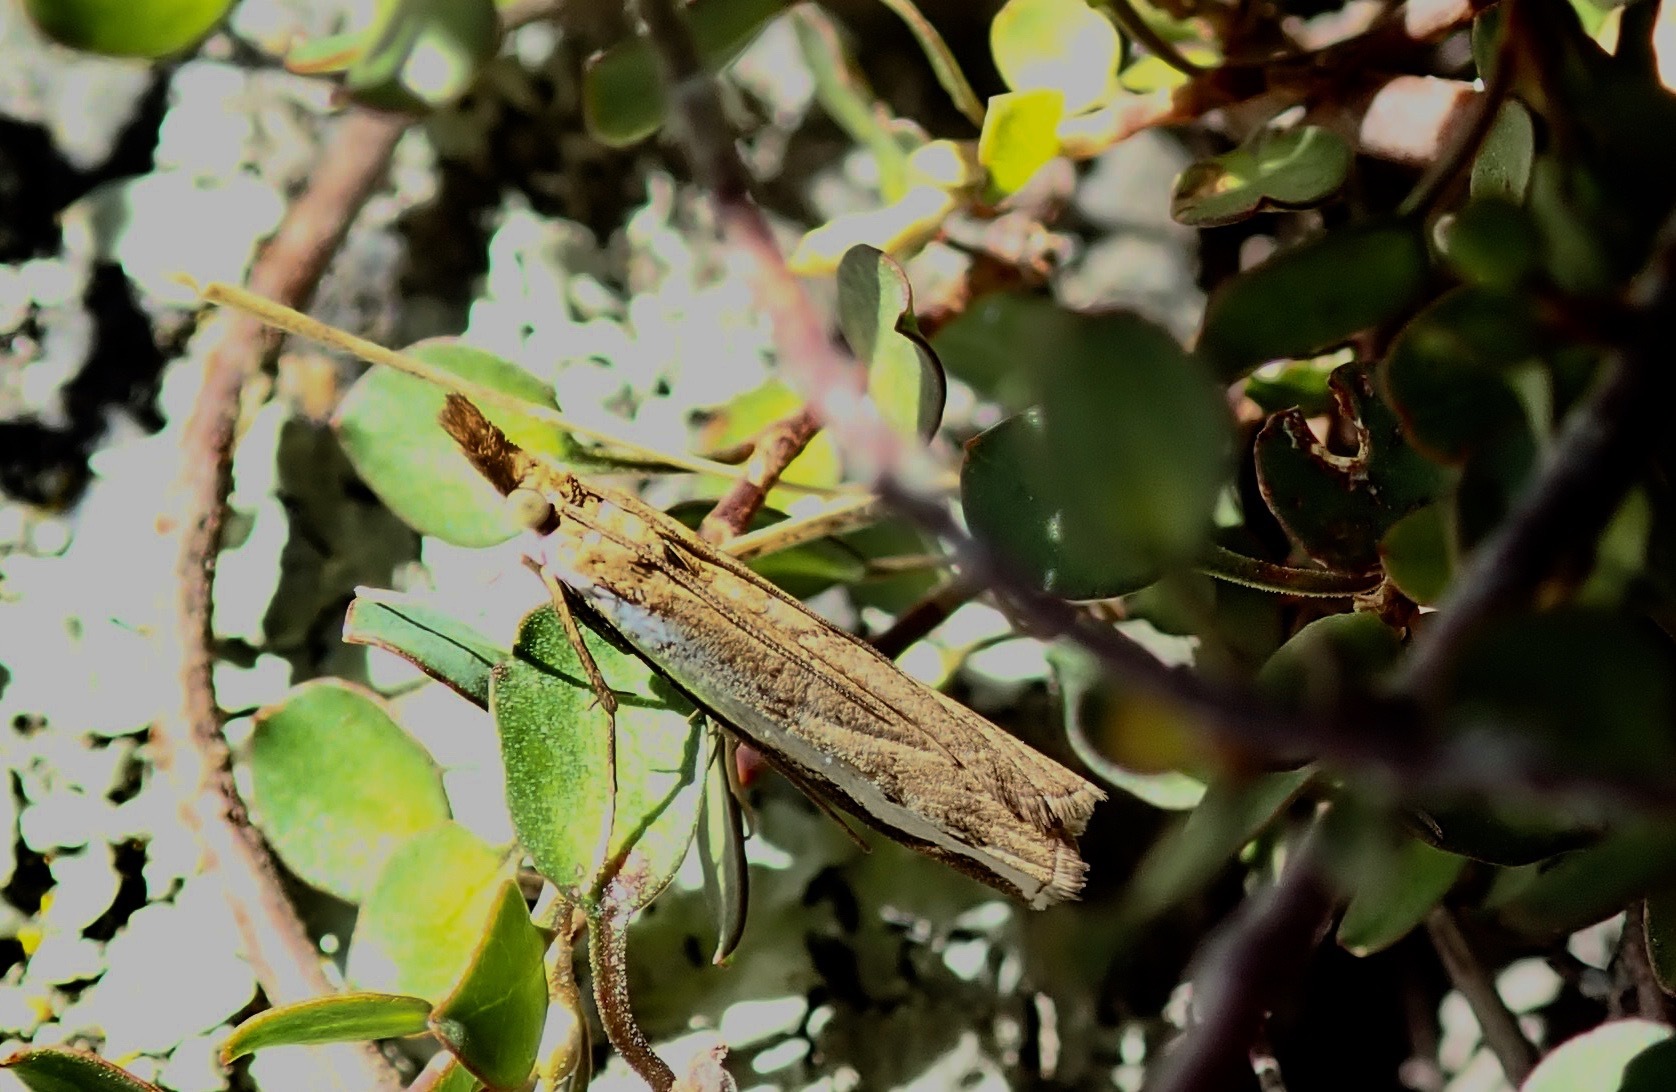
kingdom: Animalia
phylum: Arthropoda
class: Insecta
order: Lepidoptera
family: Crambidae
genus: Orocrambus
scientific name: Orocrambus flexuosellus
